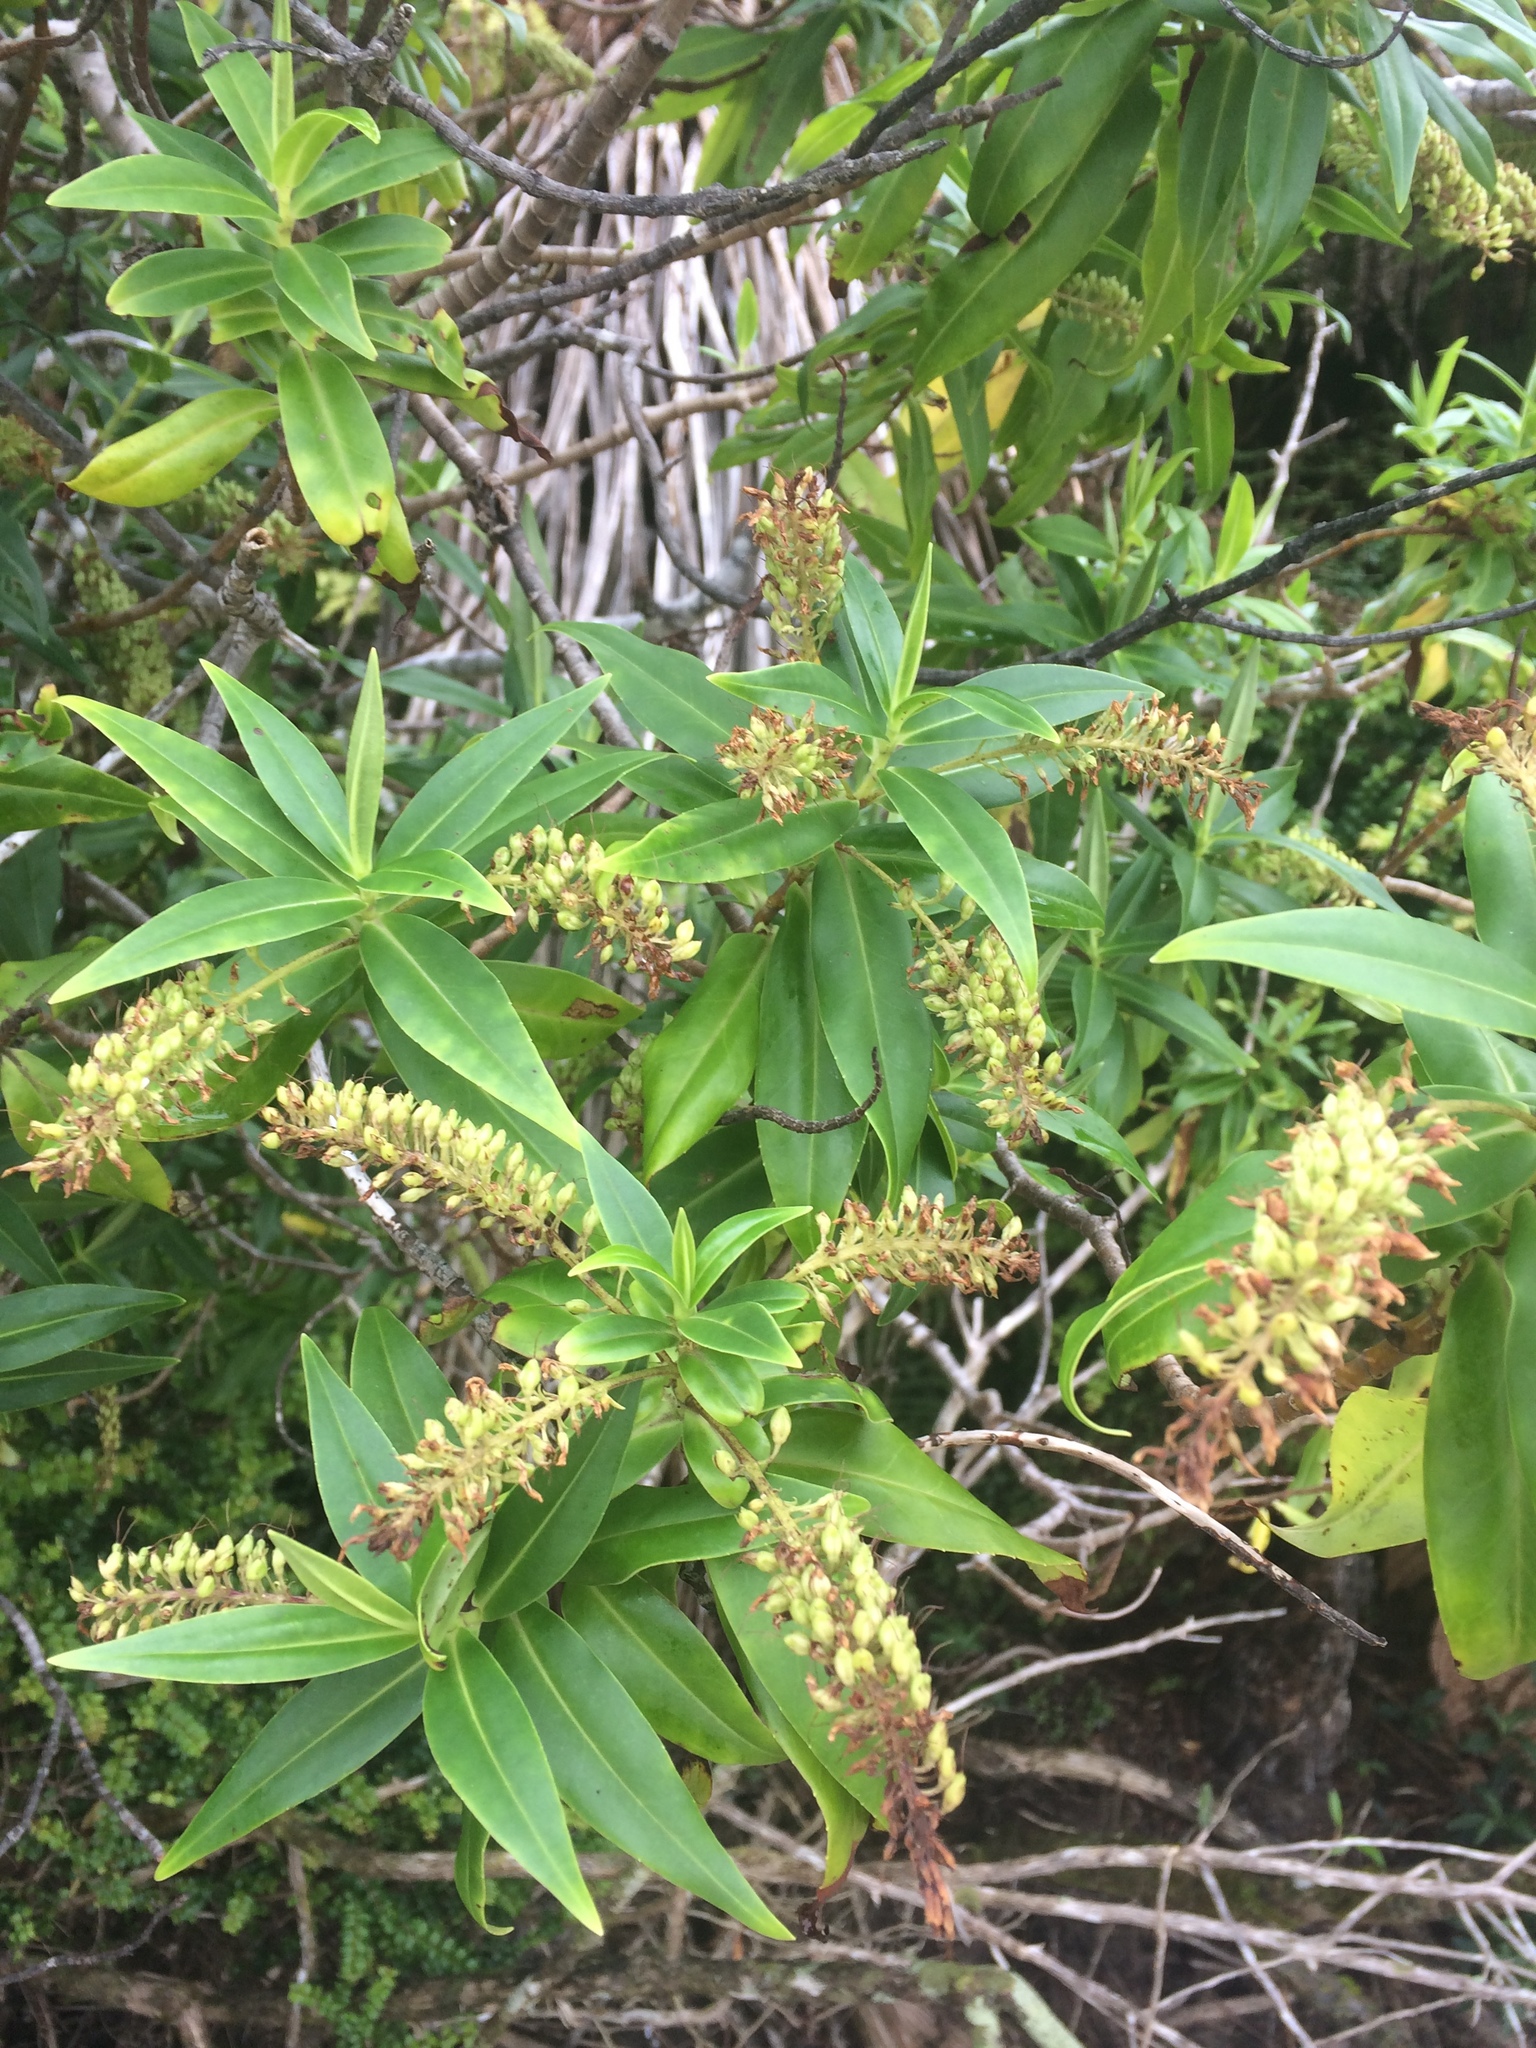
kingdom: Plantae
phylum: Tracheophyta
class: Magnoliopsida
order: Lamiales
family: Plantaginaceae
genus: Veronica
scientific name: Veronica salicifolia
